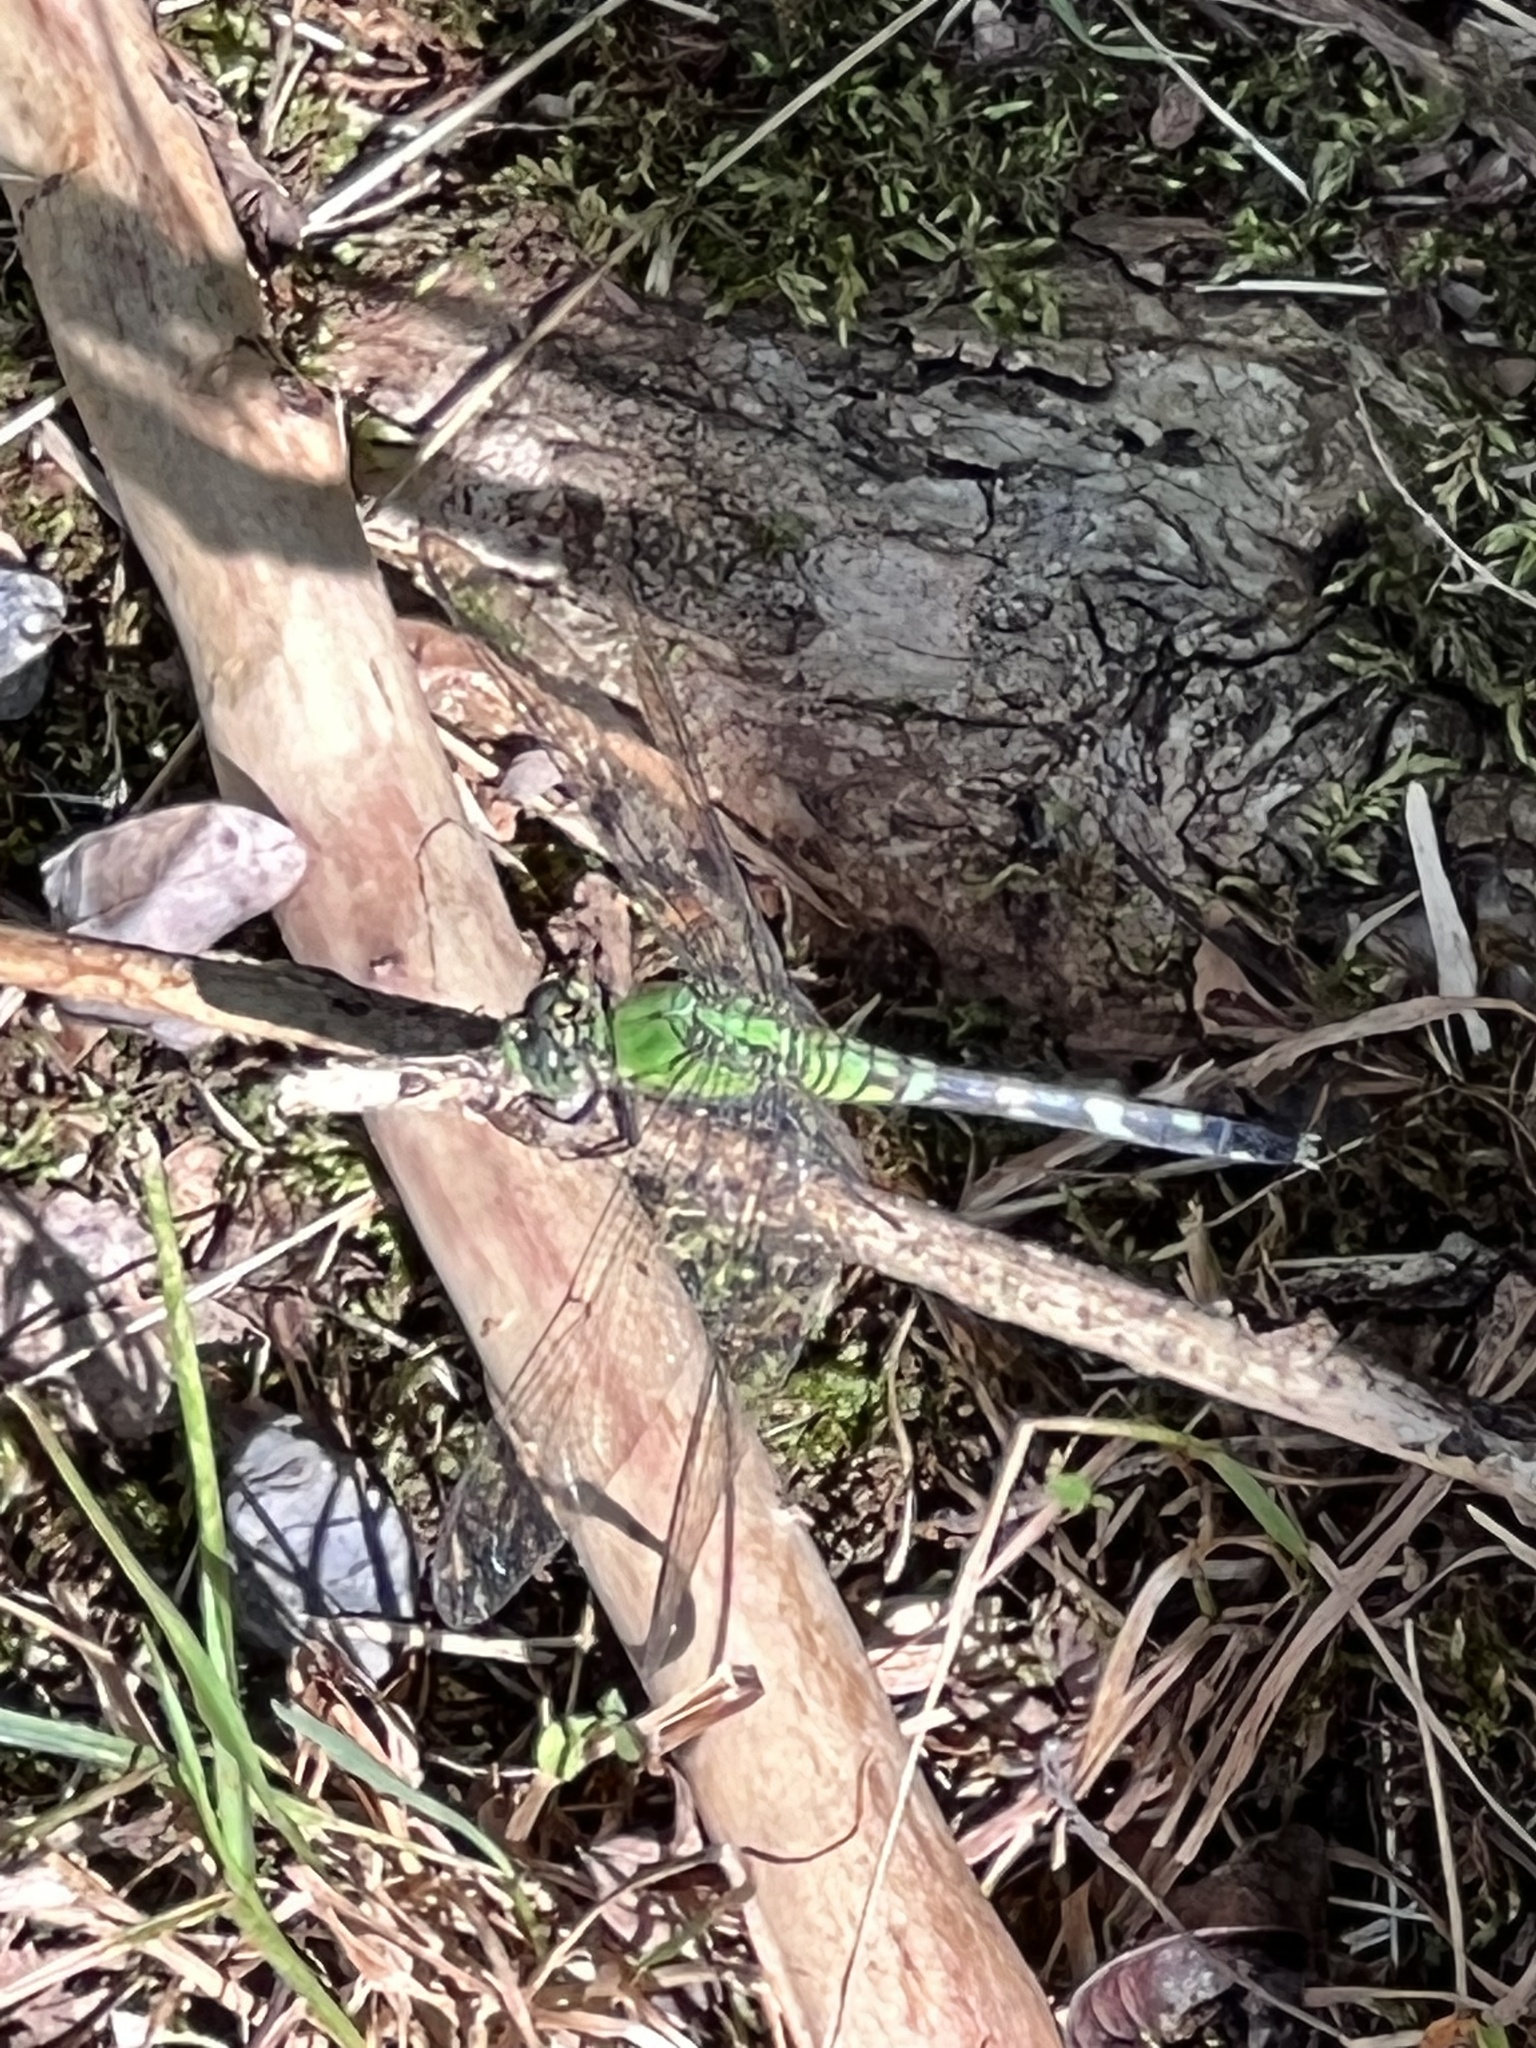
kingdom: Animalia
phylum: Arthropoda
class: Insecta
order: Odonata
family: Libellulidae
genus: Erythemis
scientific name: Erythemis simplicicollis
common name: Eastern pondhawk
